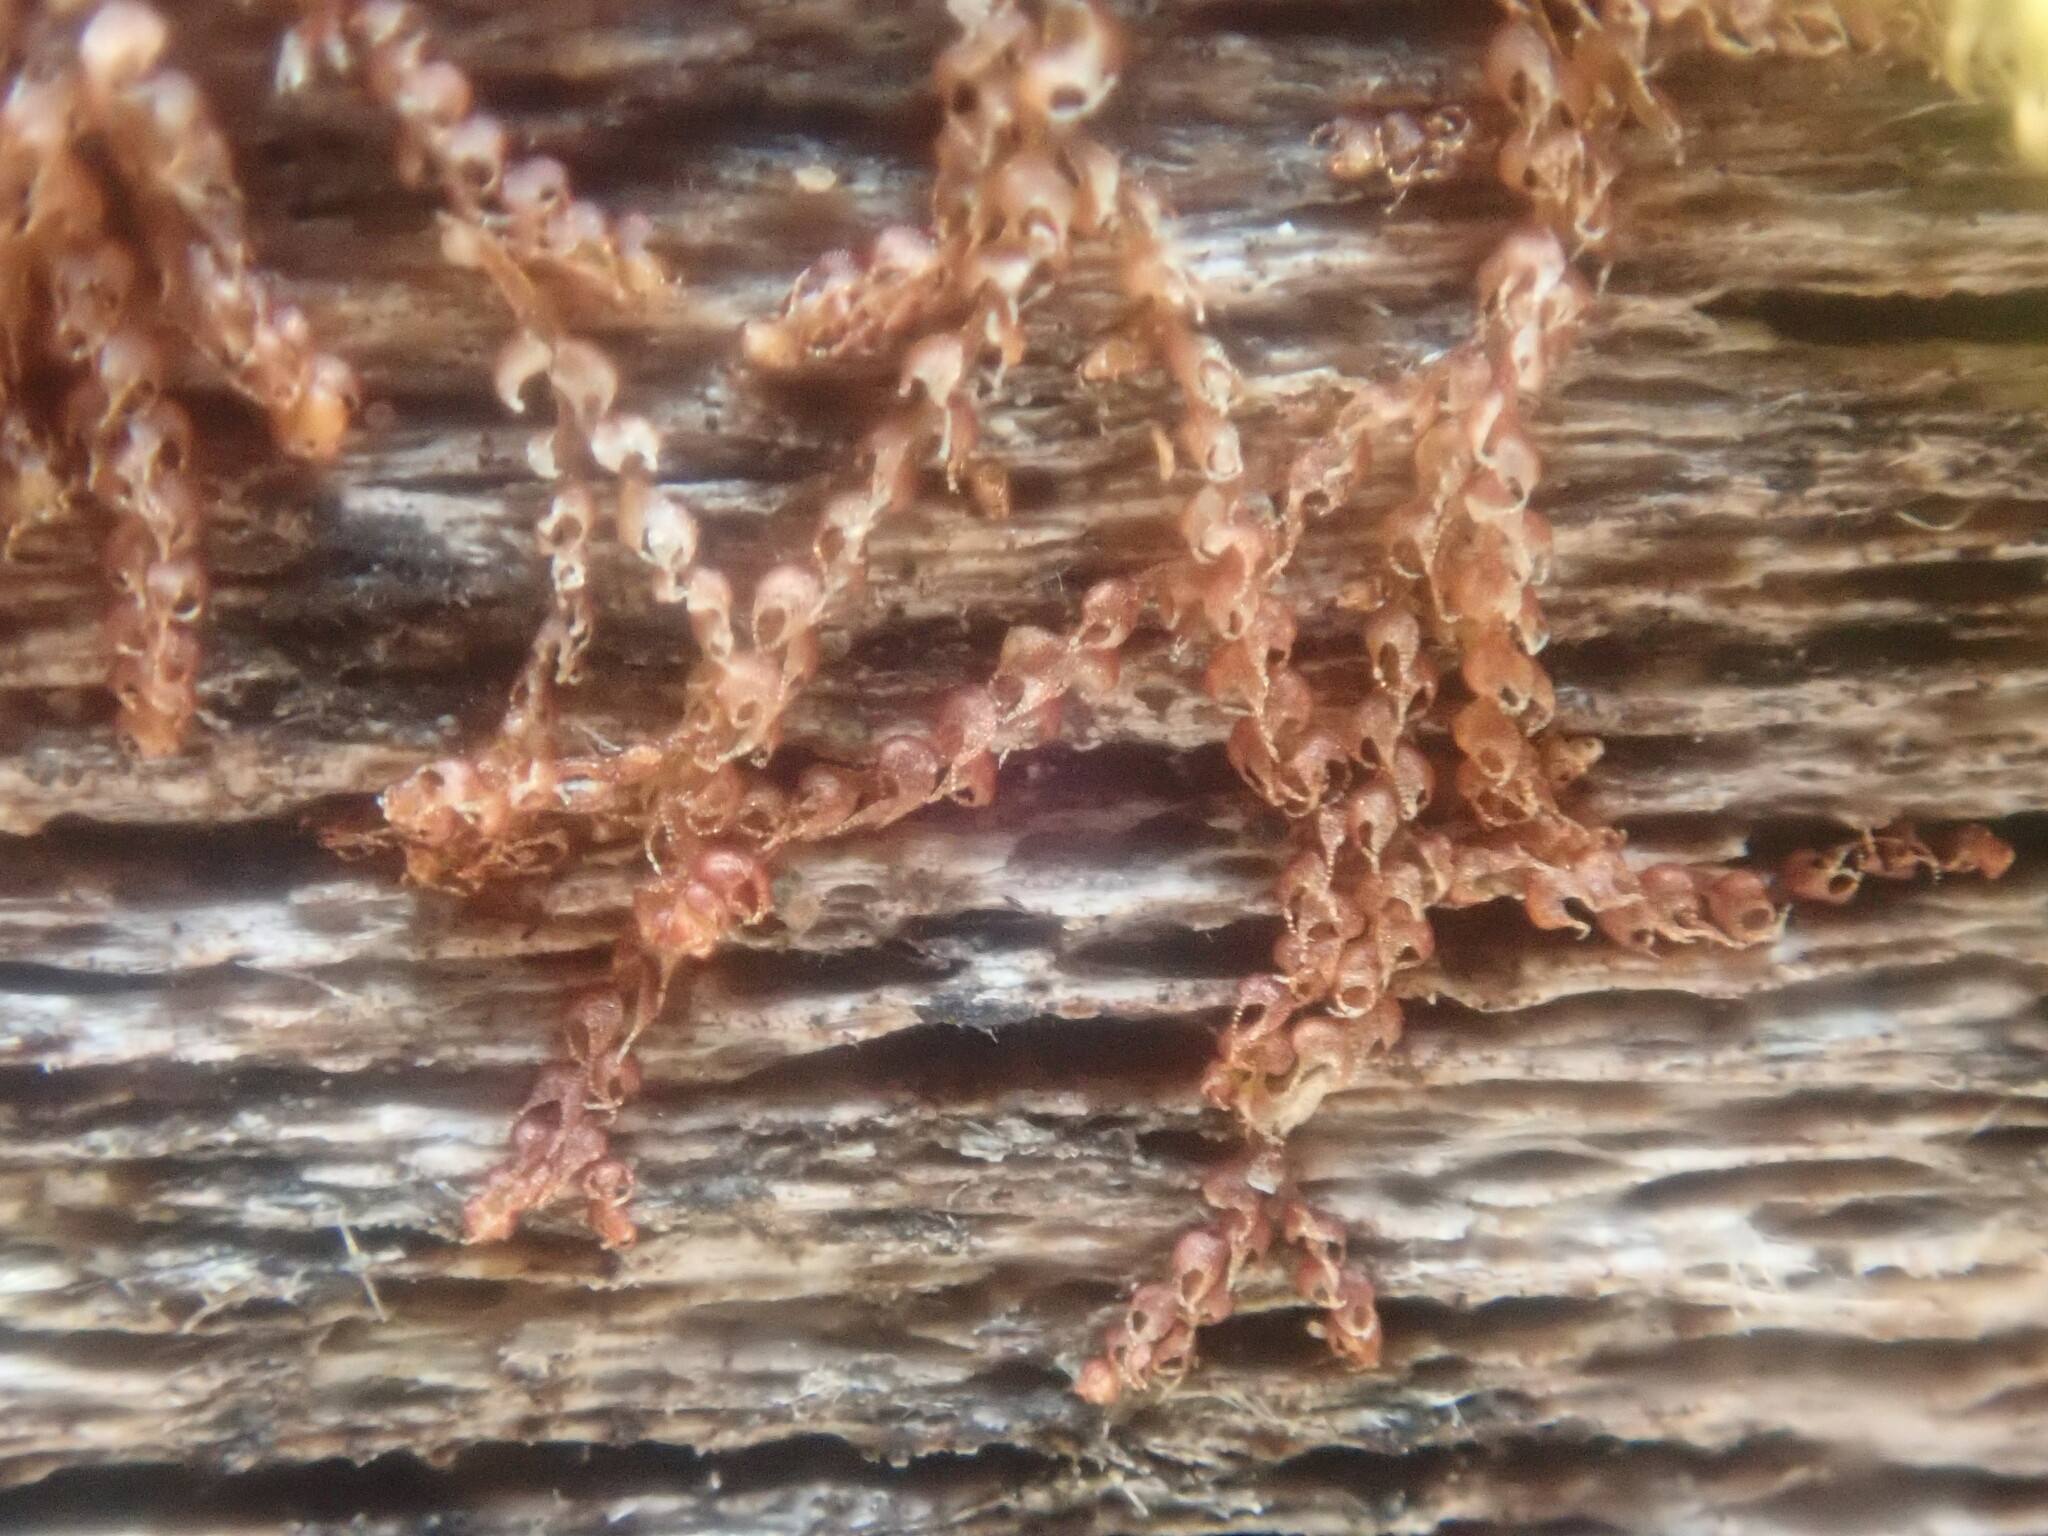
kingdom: Plantae
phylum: Marchantiophyta
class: Jungermanniopsida
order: Jungermanniales
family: Cephaloziaceae
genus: Nowellia
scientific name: Nowellia curvifolia
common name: Wood rustwort
